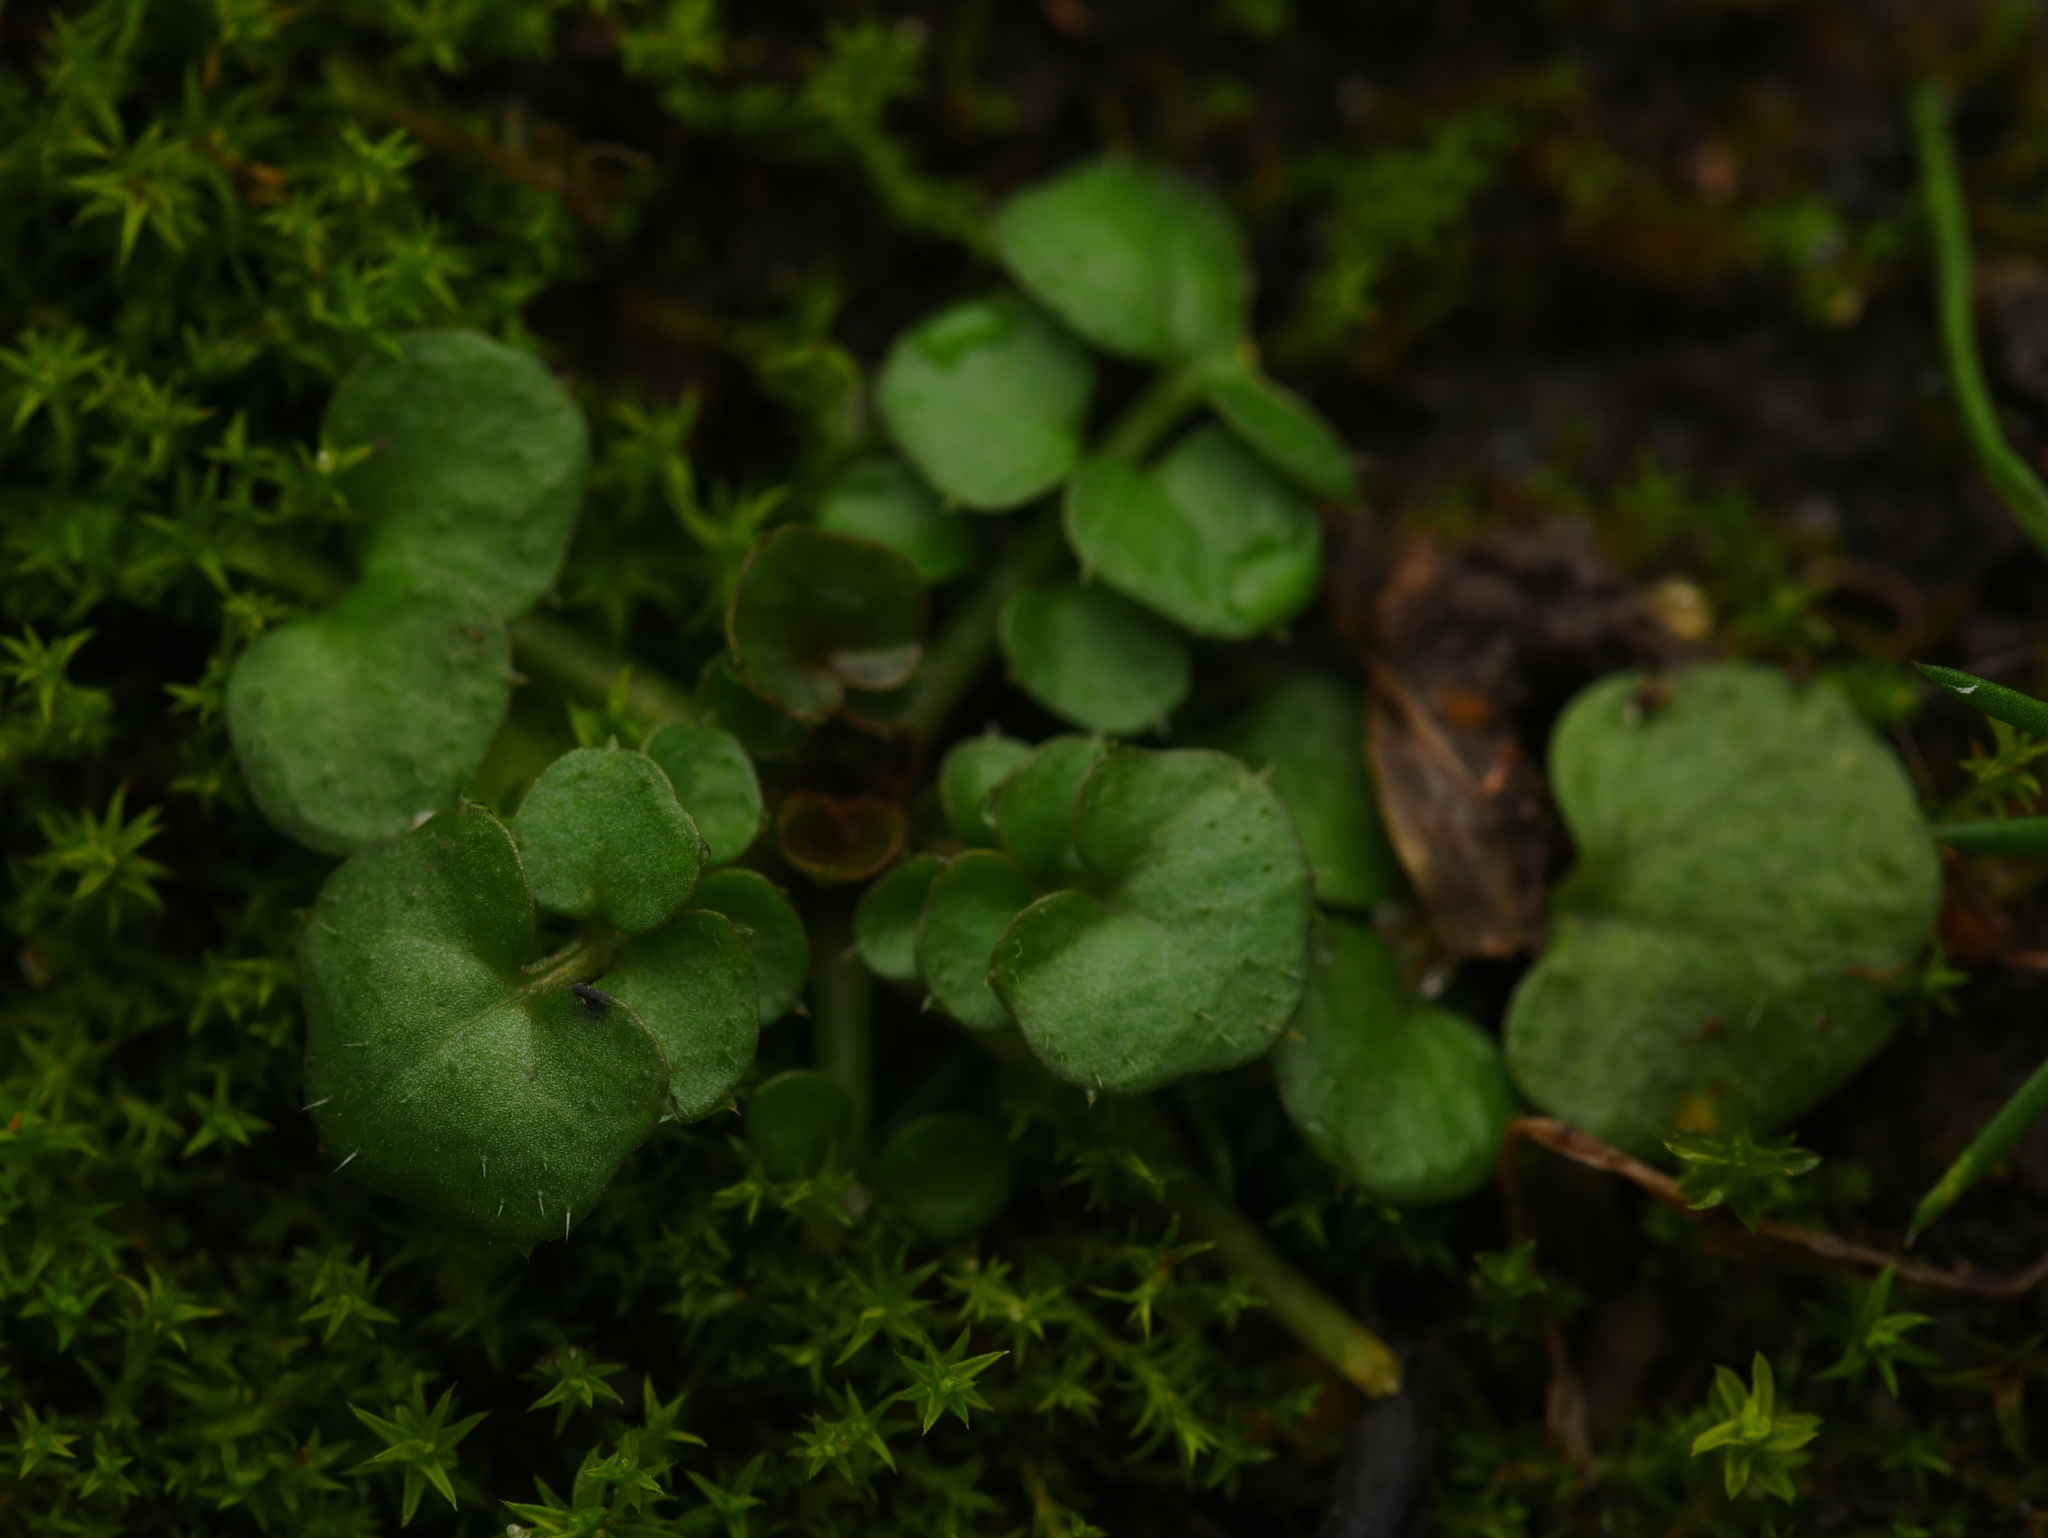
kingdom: Plantae
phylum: Tracheophyta
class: Magnoliopsida
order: Brassicales
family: Brassicaceae
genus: Cardamine
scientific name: Cardamine hirsuta
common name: Hairy bittercress
